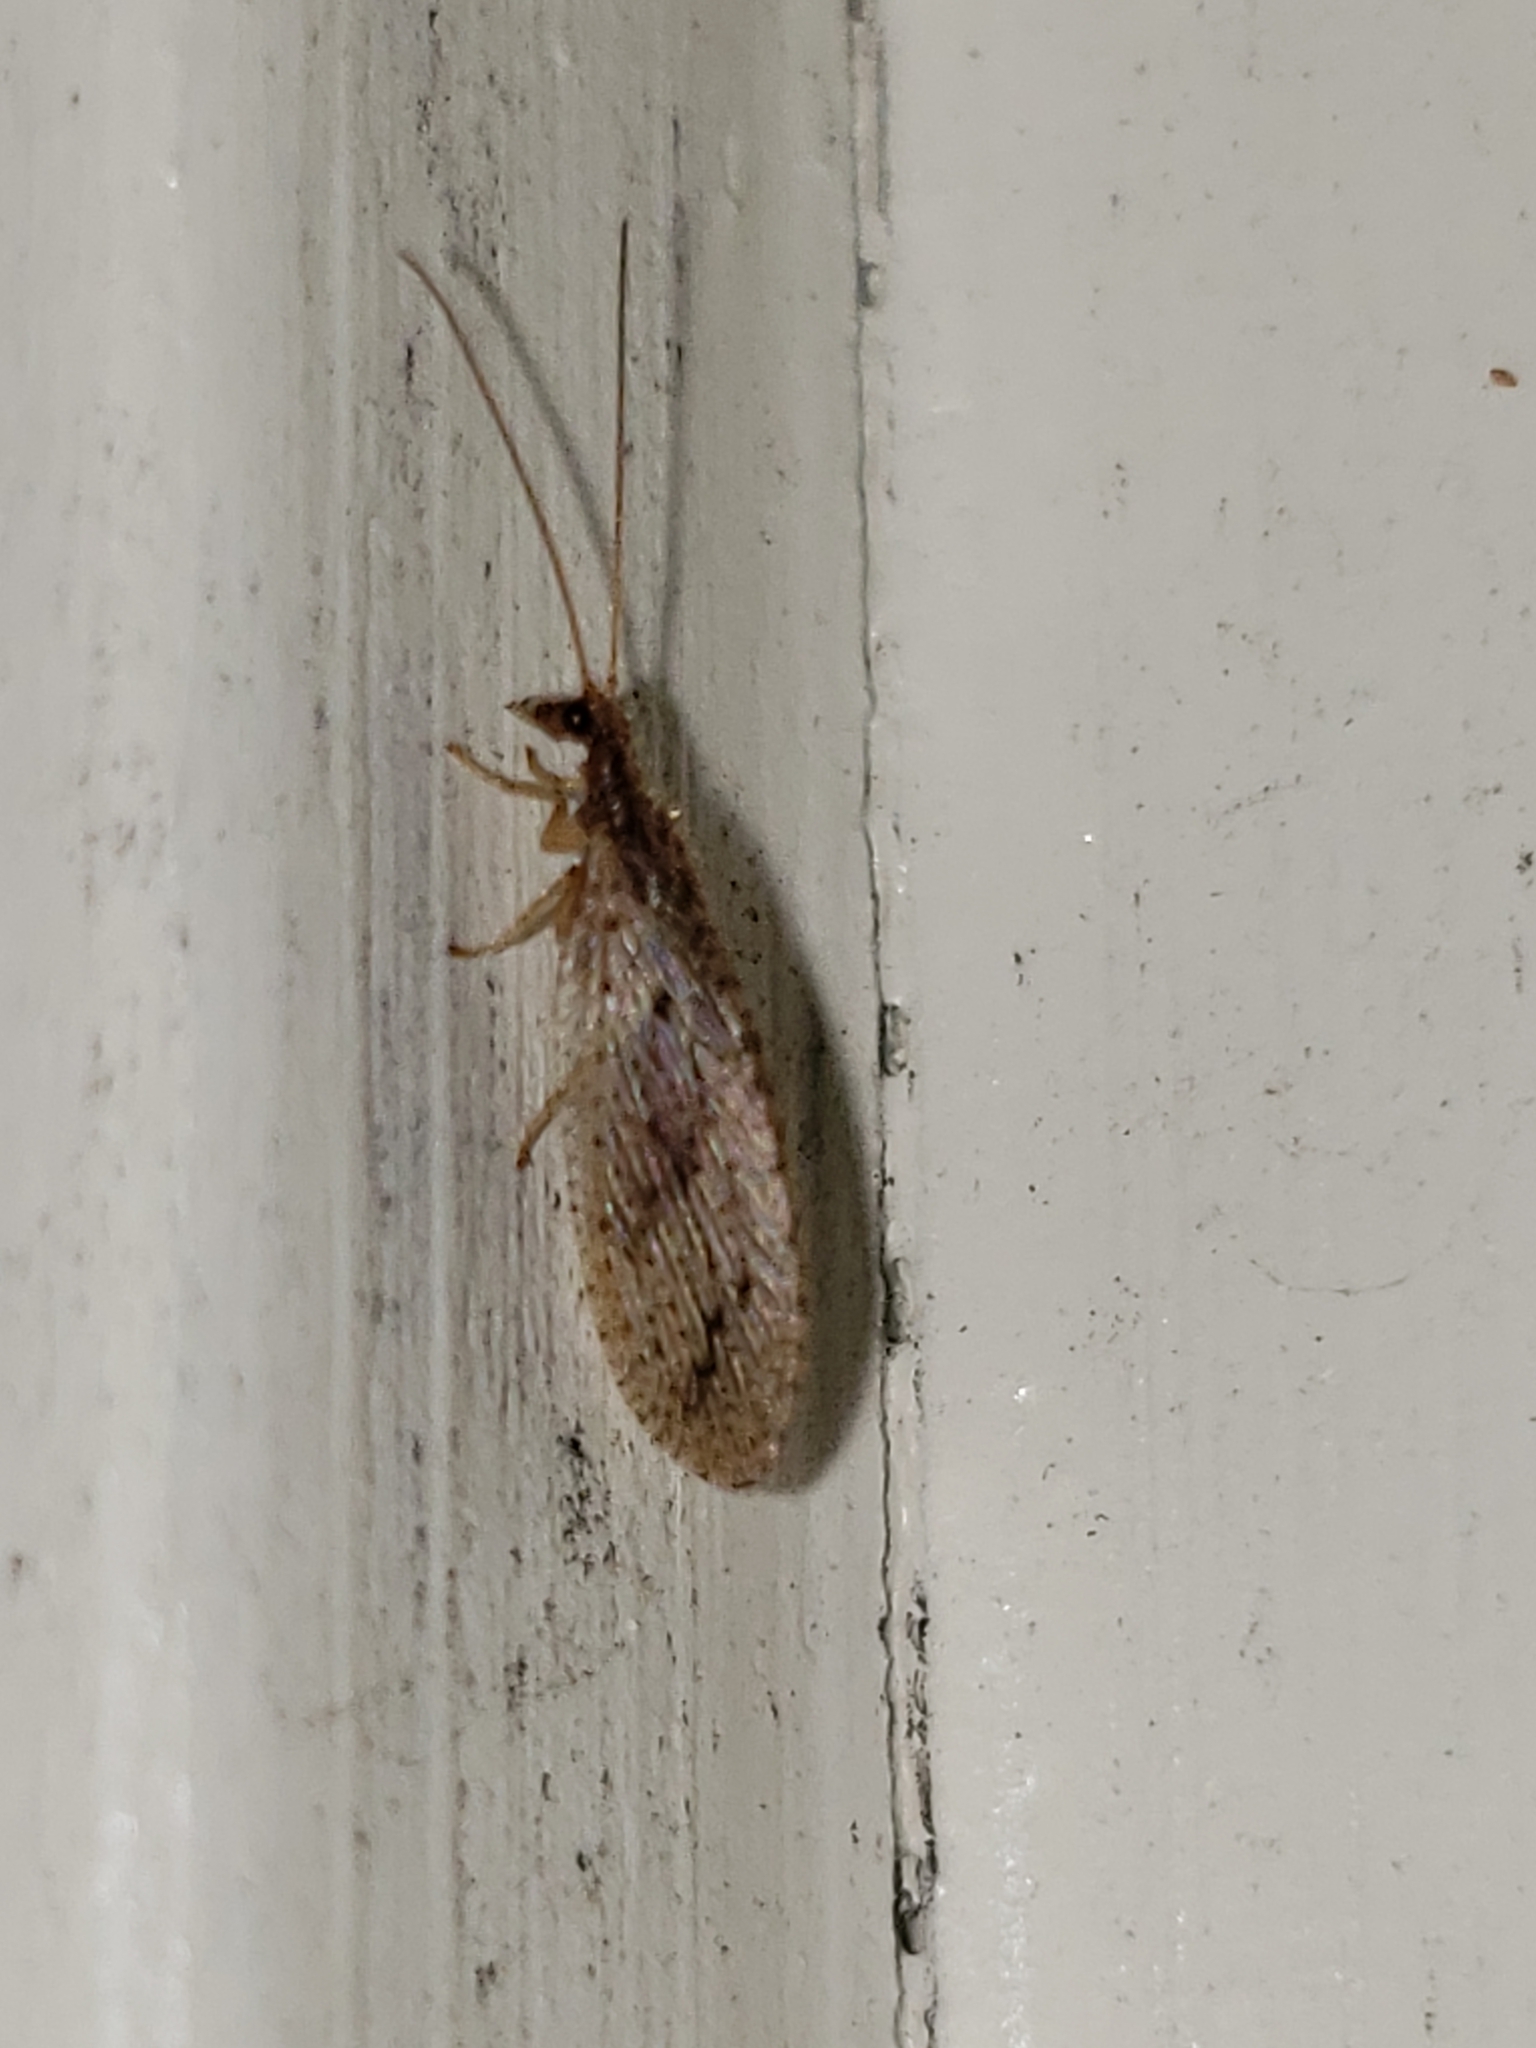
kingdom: Animalia
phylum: Arthropoda
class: Insecta
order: Neuroptera
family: Hemerobiidae
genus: Micromus
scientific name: Micromus subanticus
